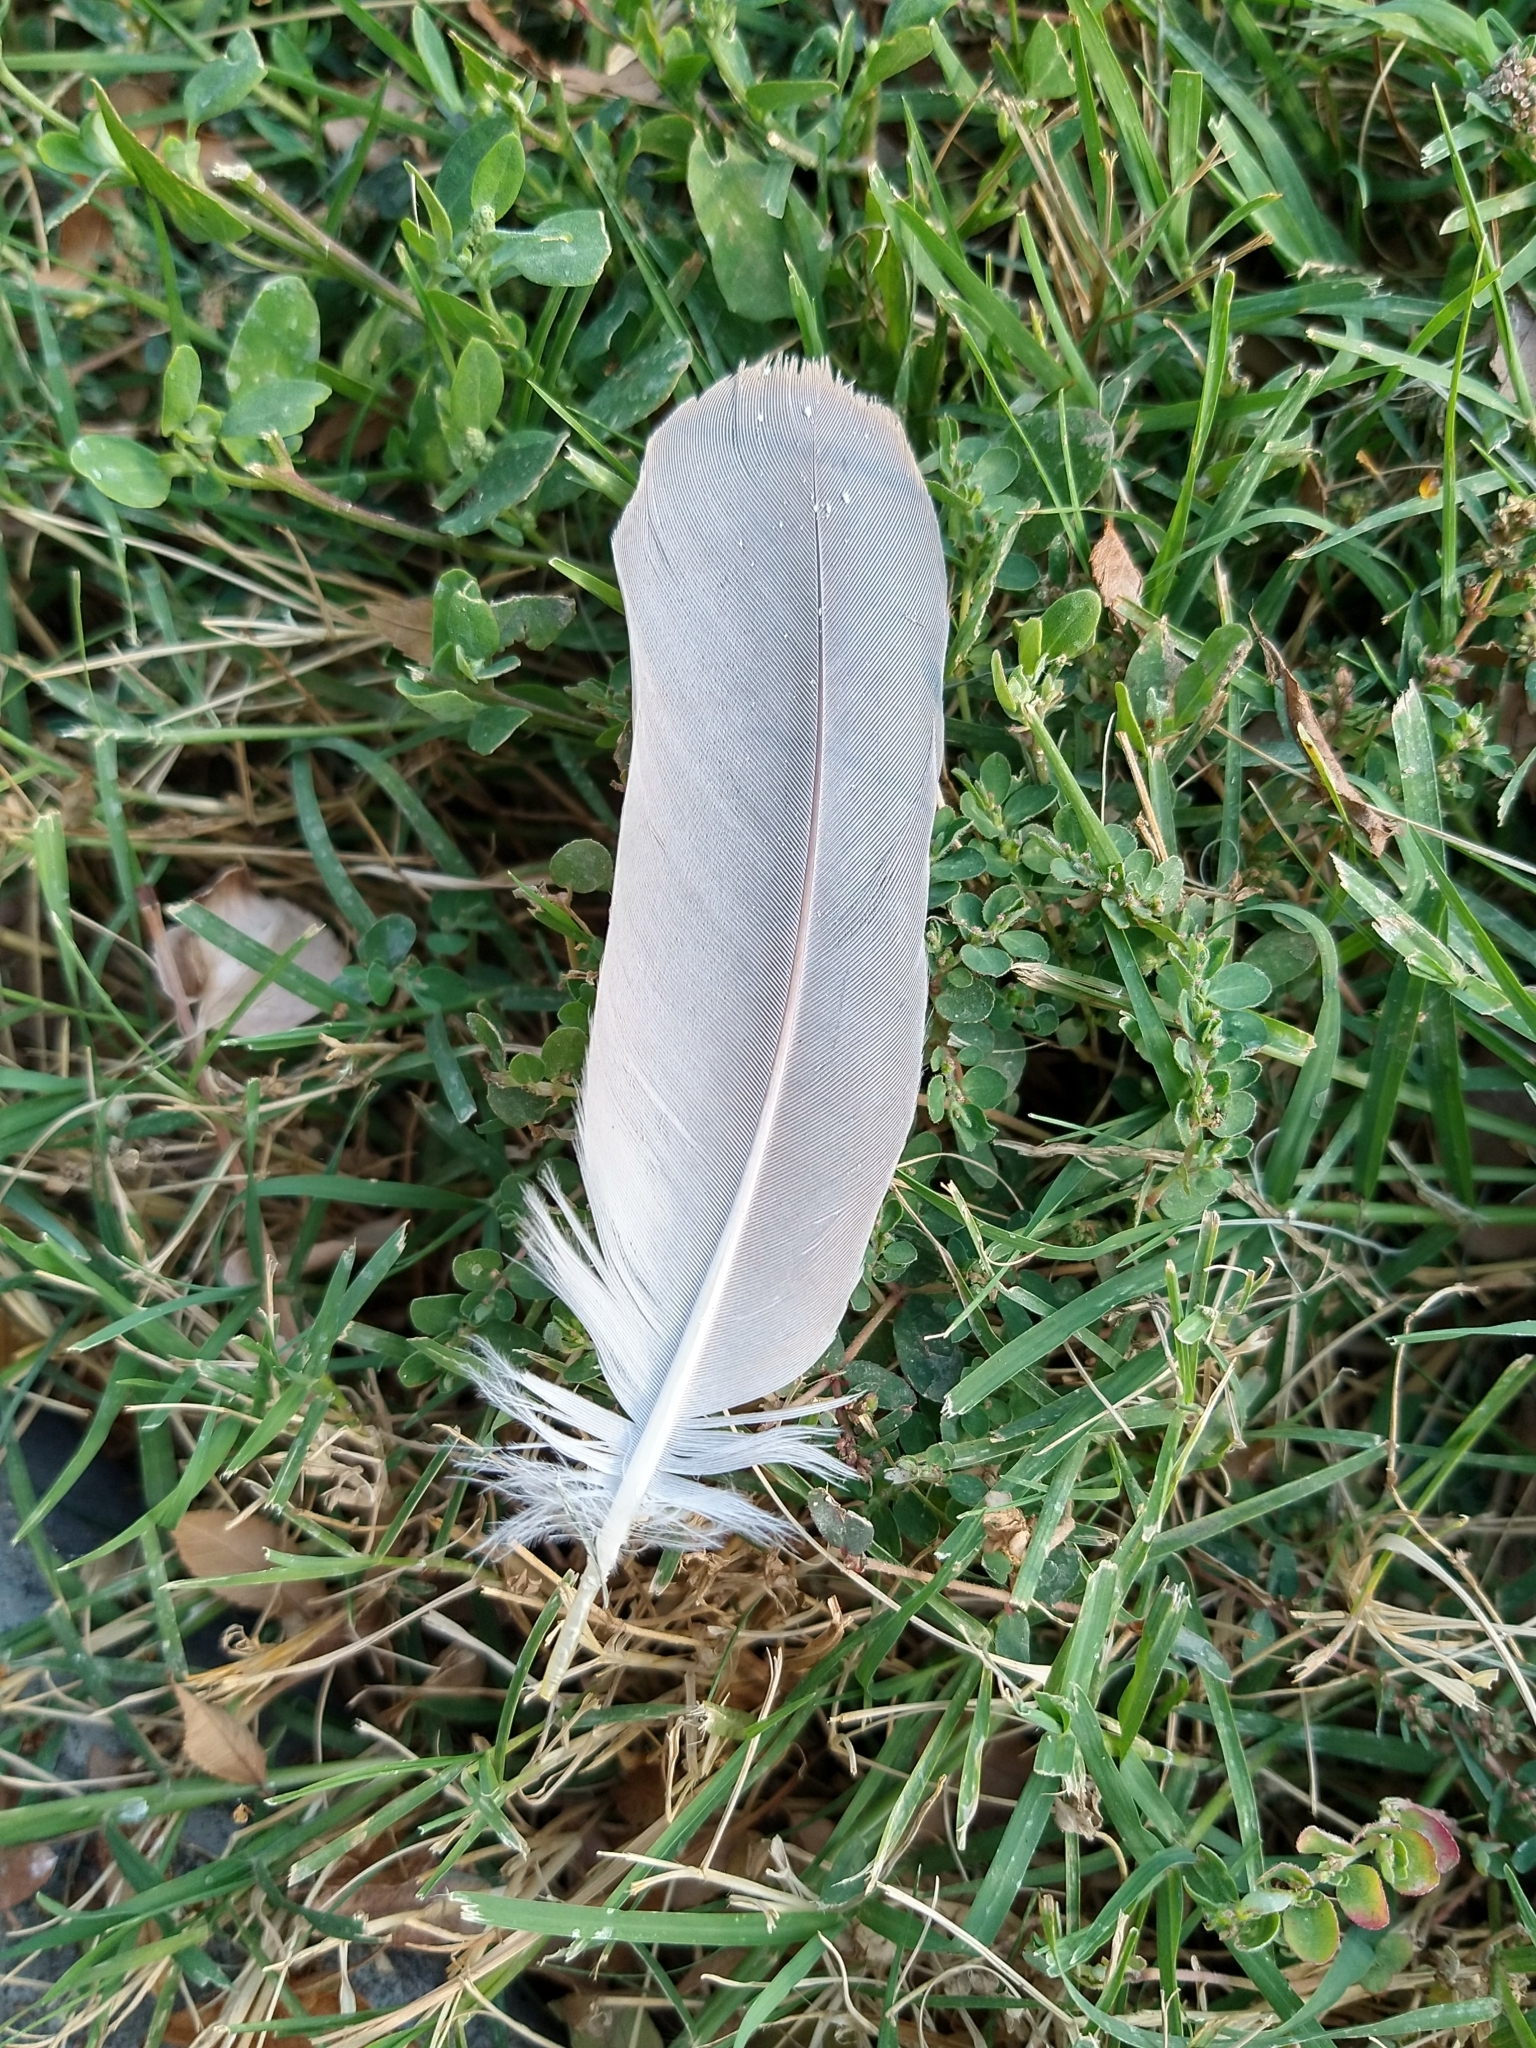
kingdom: Animalia
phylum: Chordata
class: Aves
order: Pelecaniformes
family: Ardeidae
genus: Nycticorax
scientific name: Nycticorax nycticorax
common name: Black-crowned night heron
